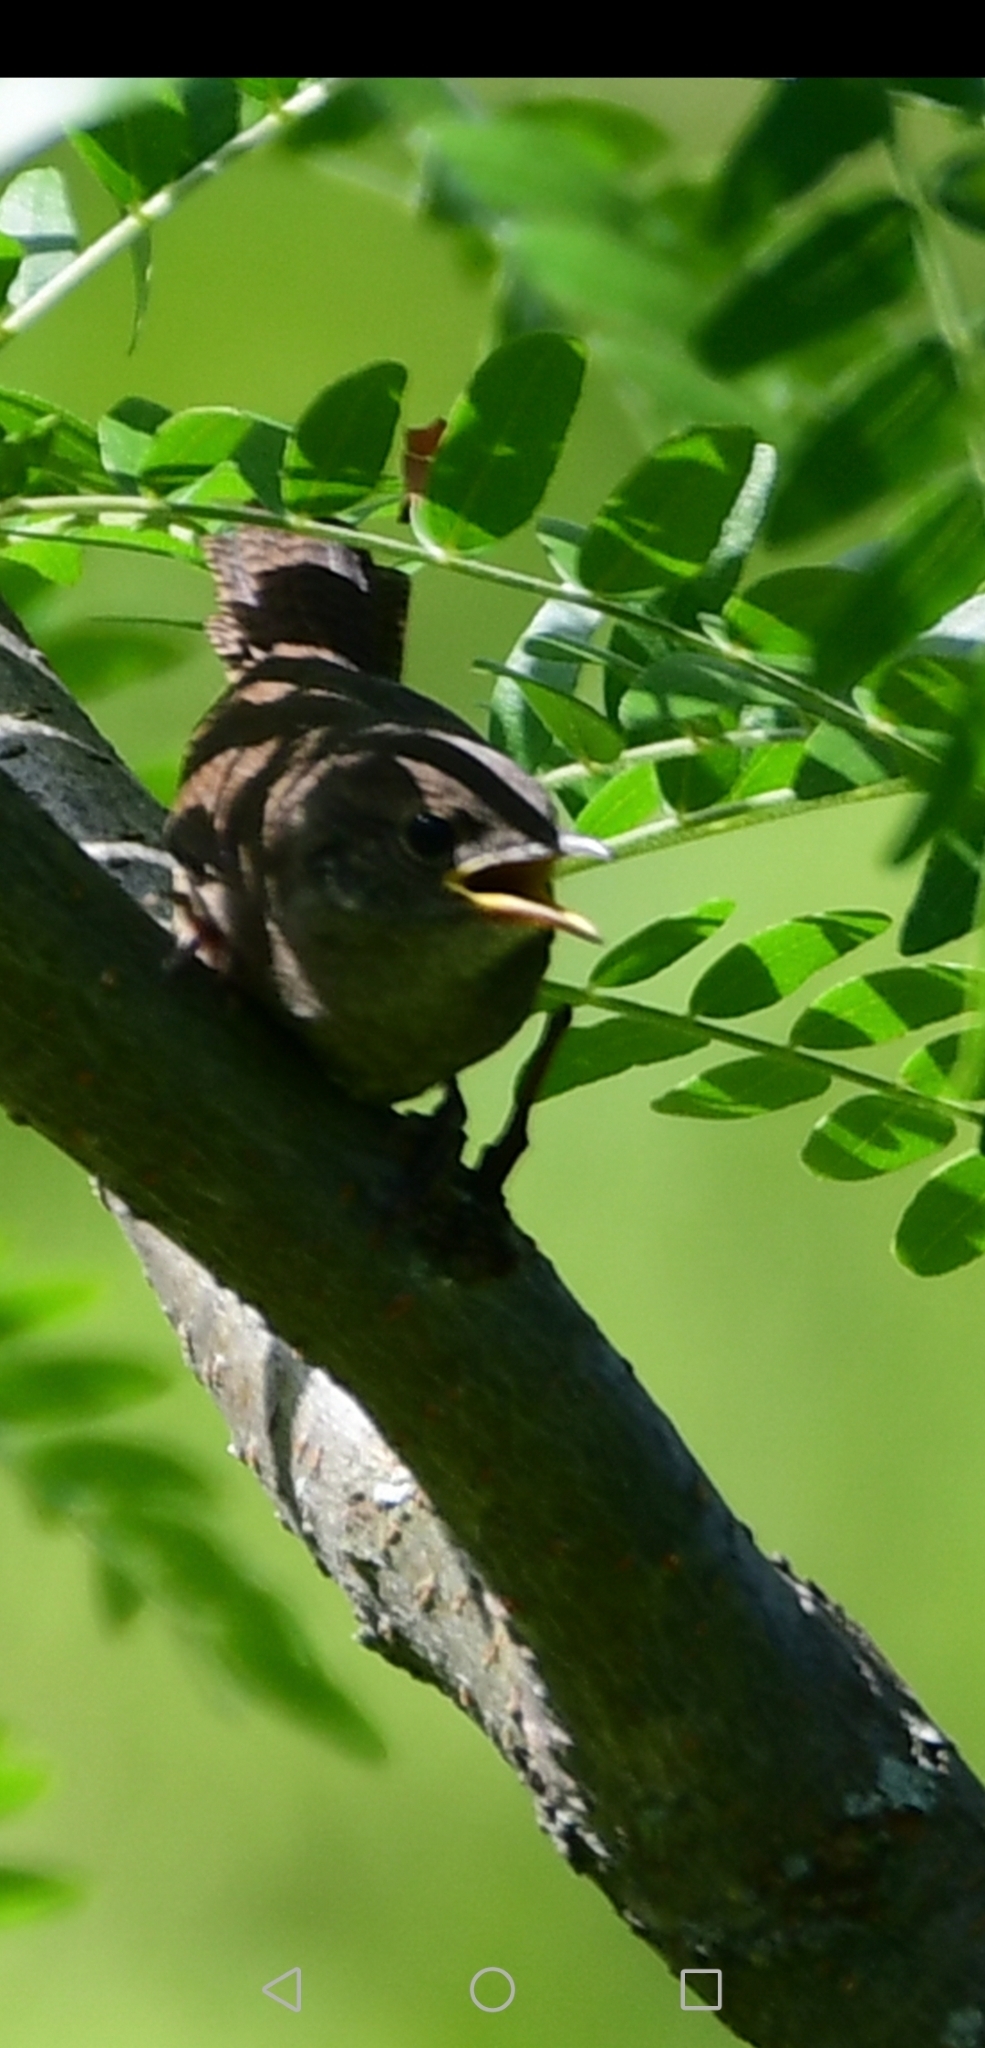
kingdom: Animalia
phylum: Chordata
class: Aves
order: Passeriformes
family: Troglodytidae
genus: Troglodytes
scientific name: Troglodytes aedon
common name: House wren
